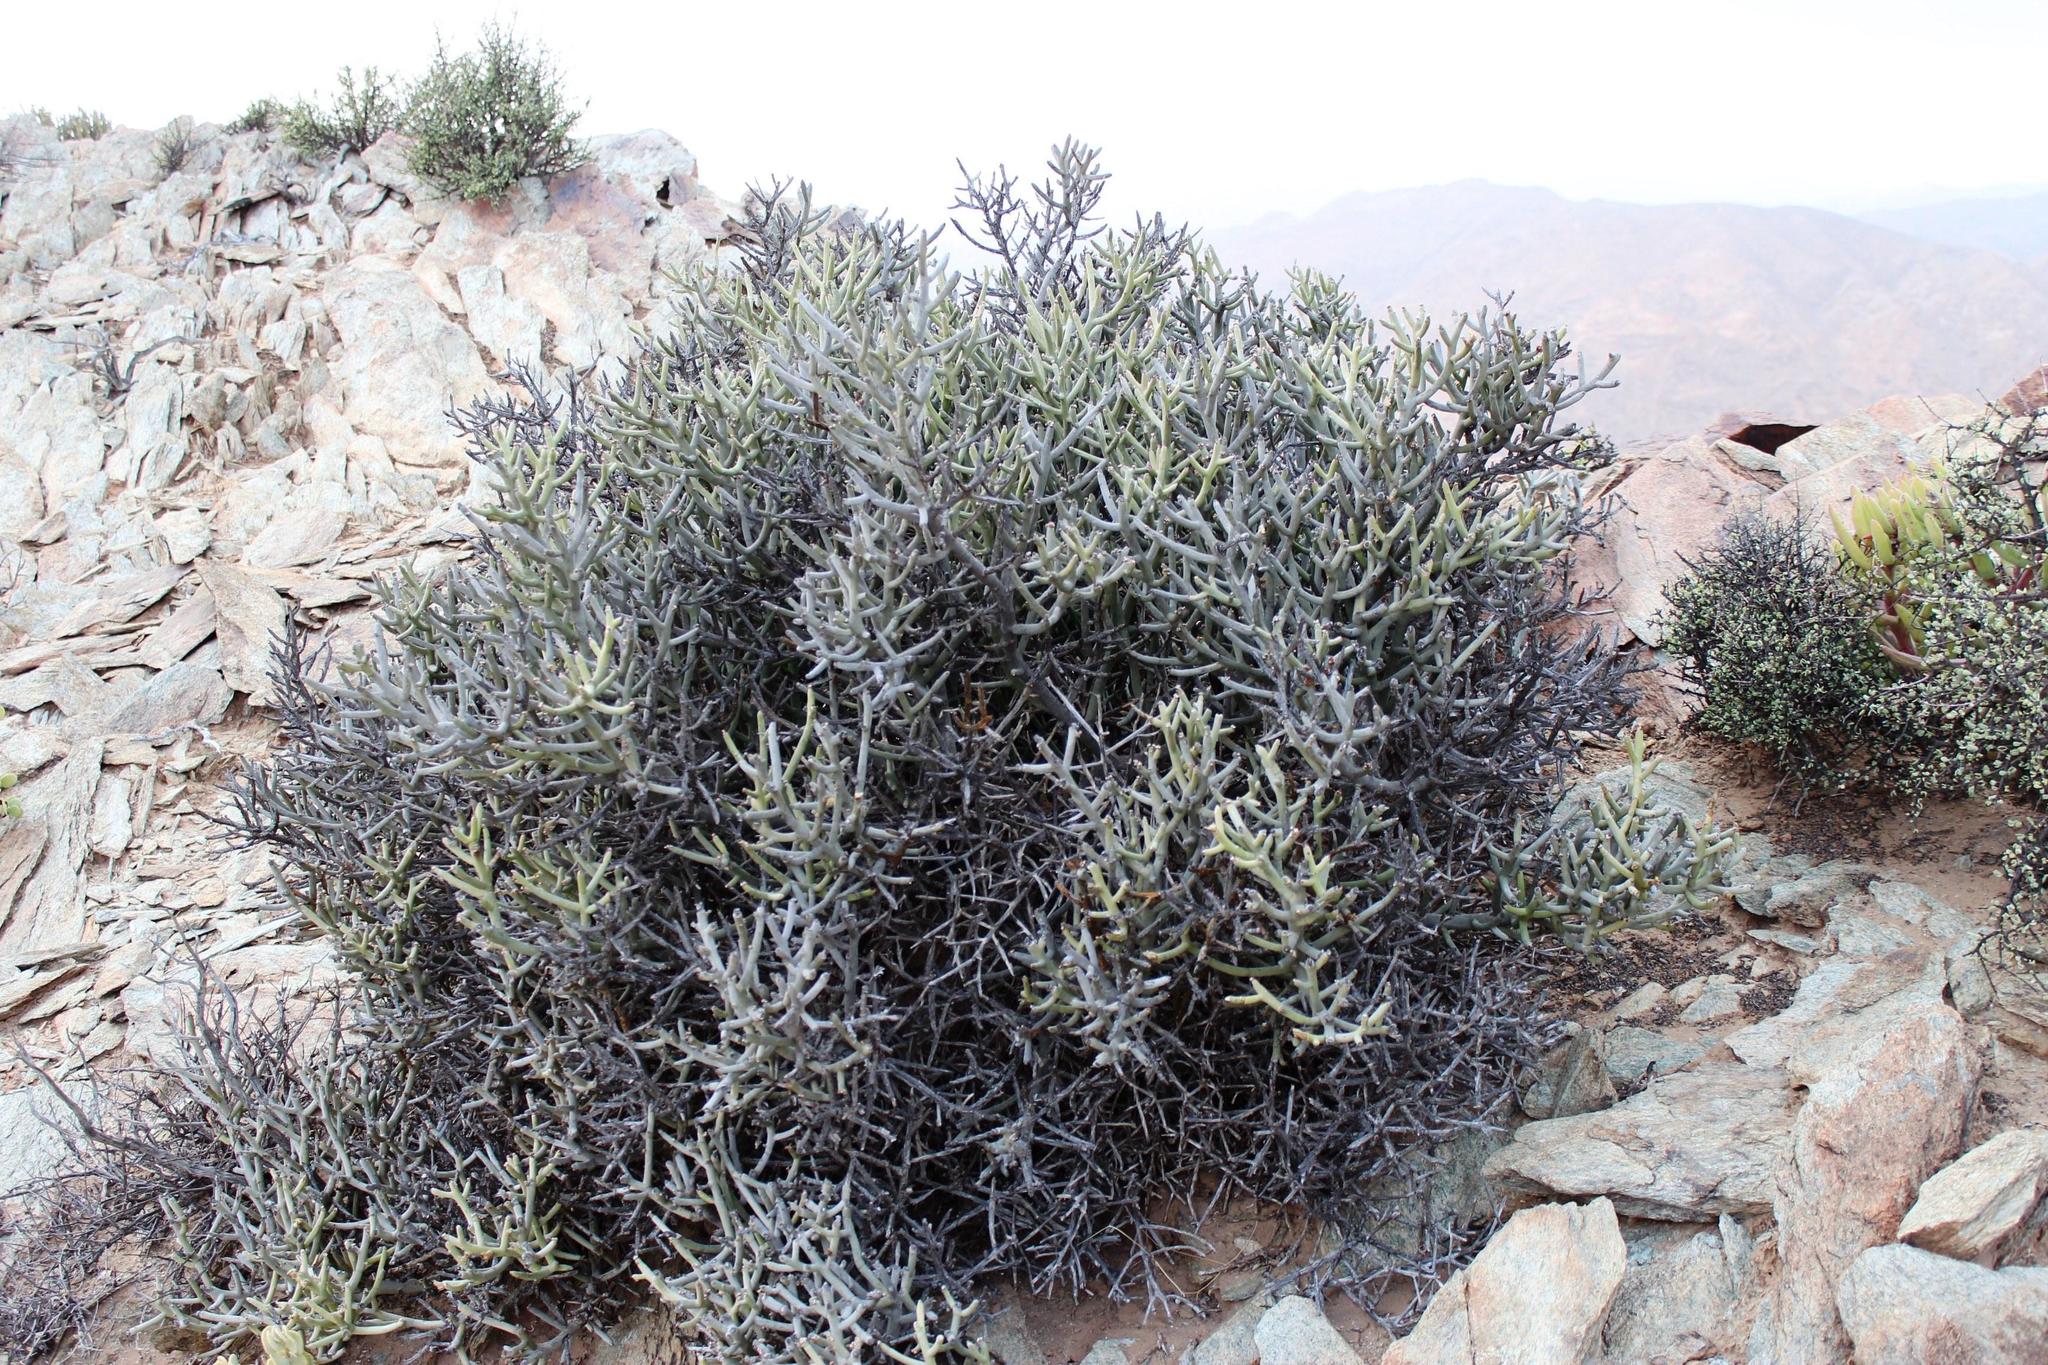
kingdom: Plantae
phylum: Tracheophyta
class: Magnoliopsida
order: Malpighiales
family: Euphorbiaceae
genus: Euphorbia
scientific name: Euphorbia gummifera
